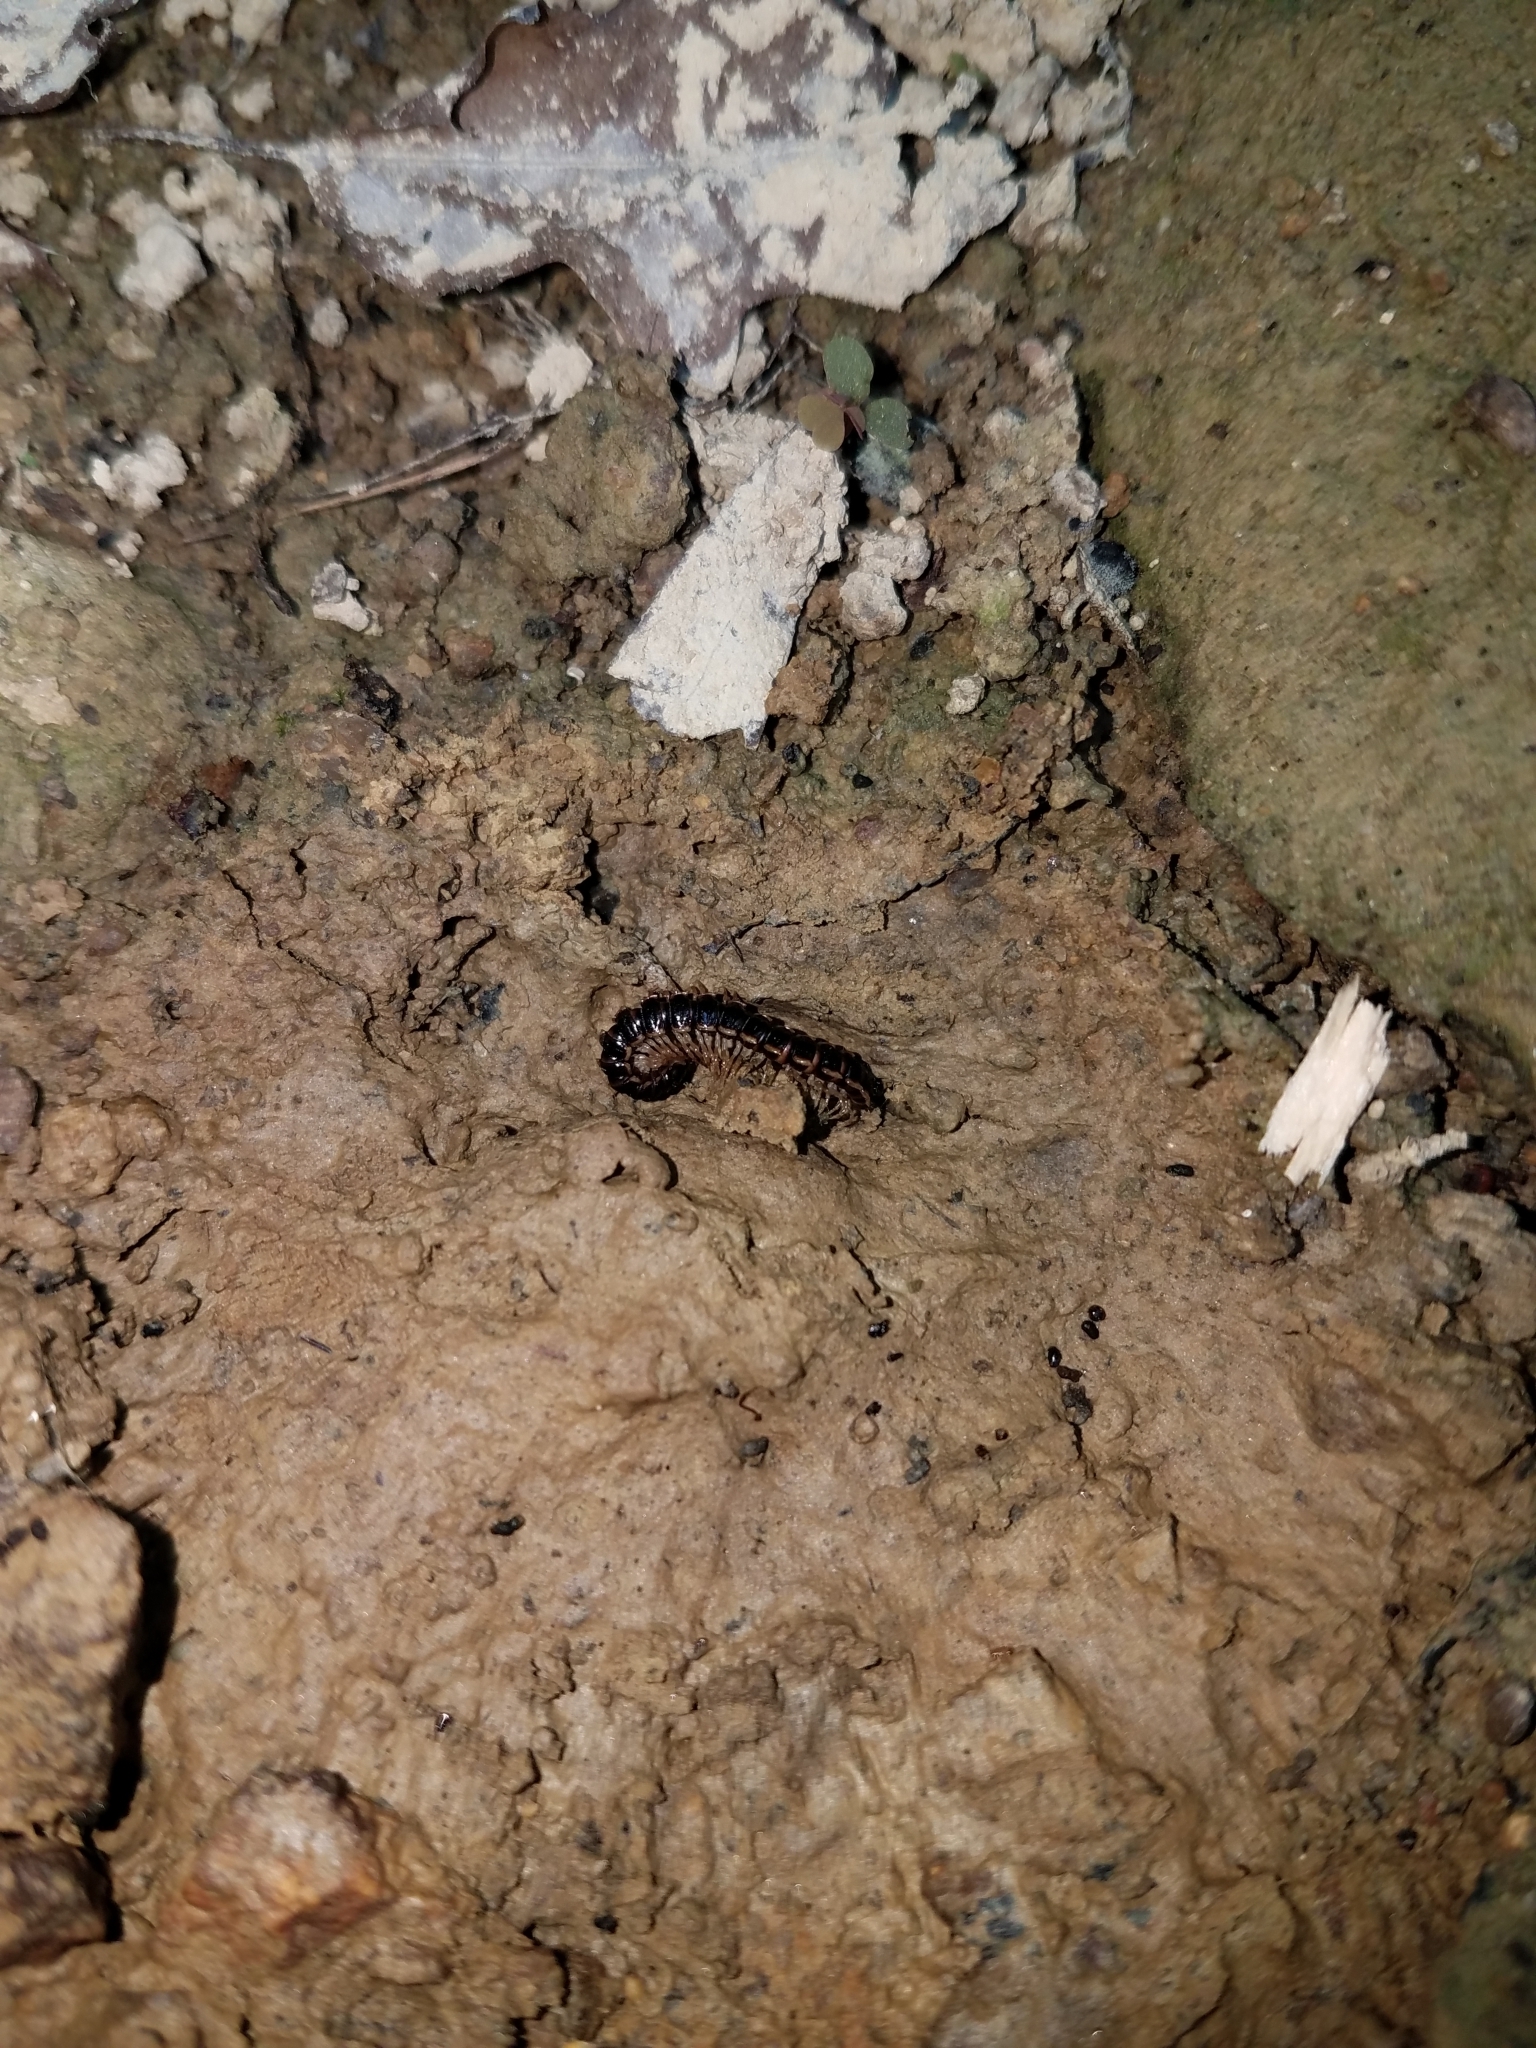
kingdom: Animalia
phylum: Arthropoda
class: Diplopoda
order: Polydesmida
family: Paradoxosomatidae
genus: Oxidus
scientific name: Oxidus gracilis
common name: Greenhouse millipede
